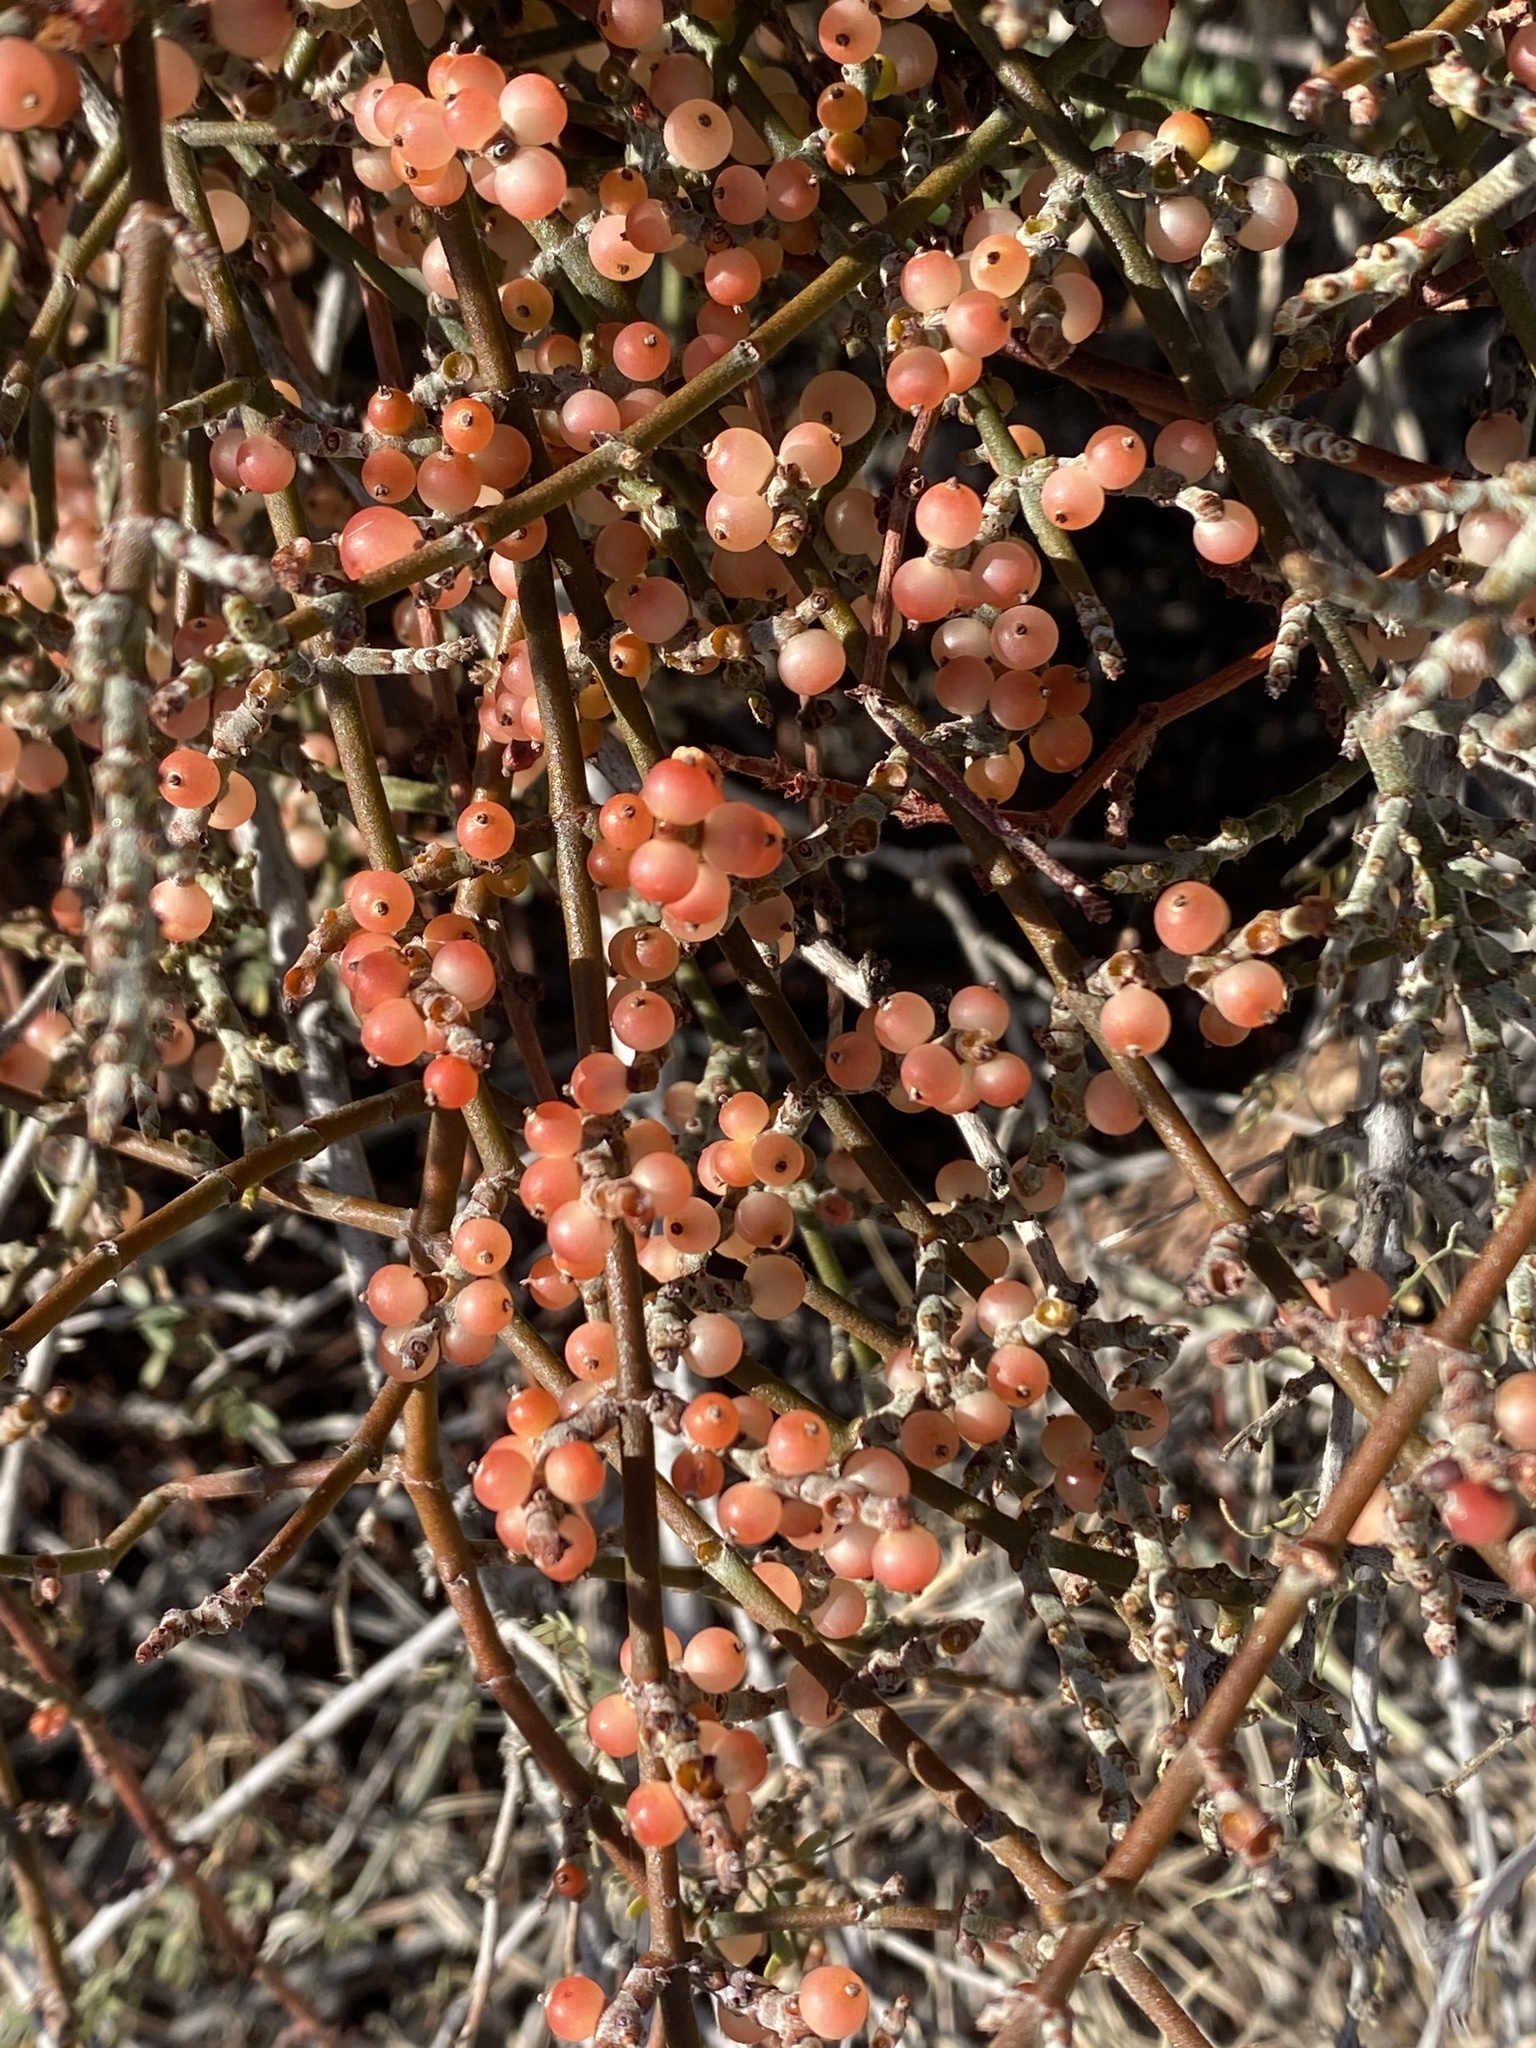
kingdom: Plantae
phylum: Tracheophyta
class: Magnoliopsida
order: Santalales
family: Viscaceae
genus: Phoradendron
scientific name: Phoradendron californicum
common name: Acacia mistletoe
